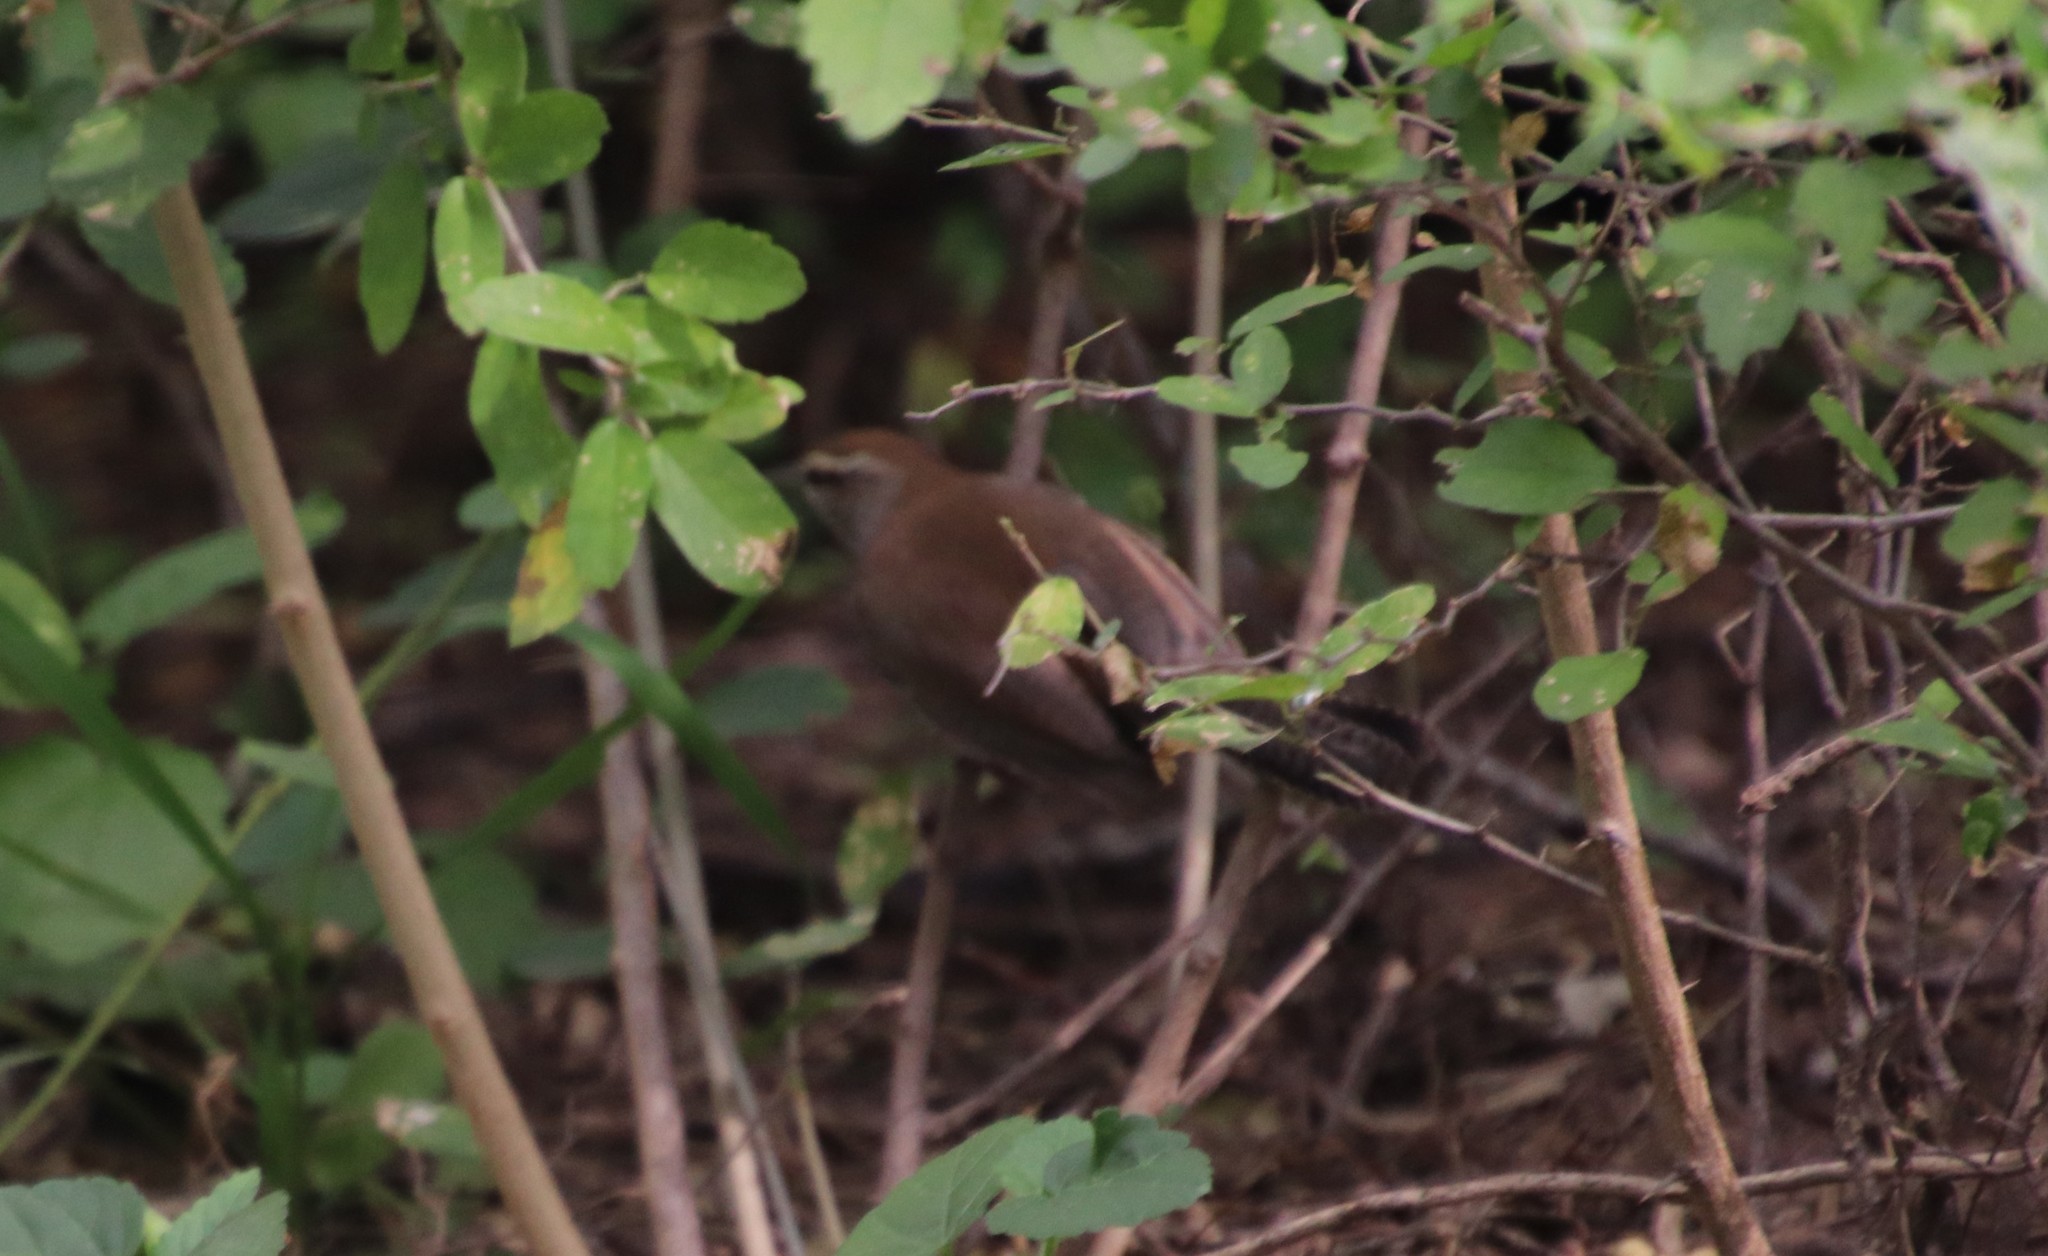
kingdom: Animalia
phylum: Chordata
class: Aves
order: Passeriformes
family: Troglodytidae
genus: Thryomanes
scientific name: Thryomanes bewickii
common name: Bewick's wren
